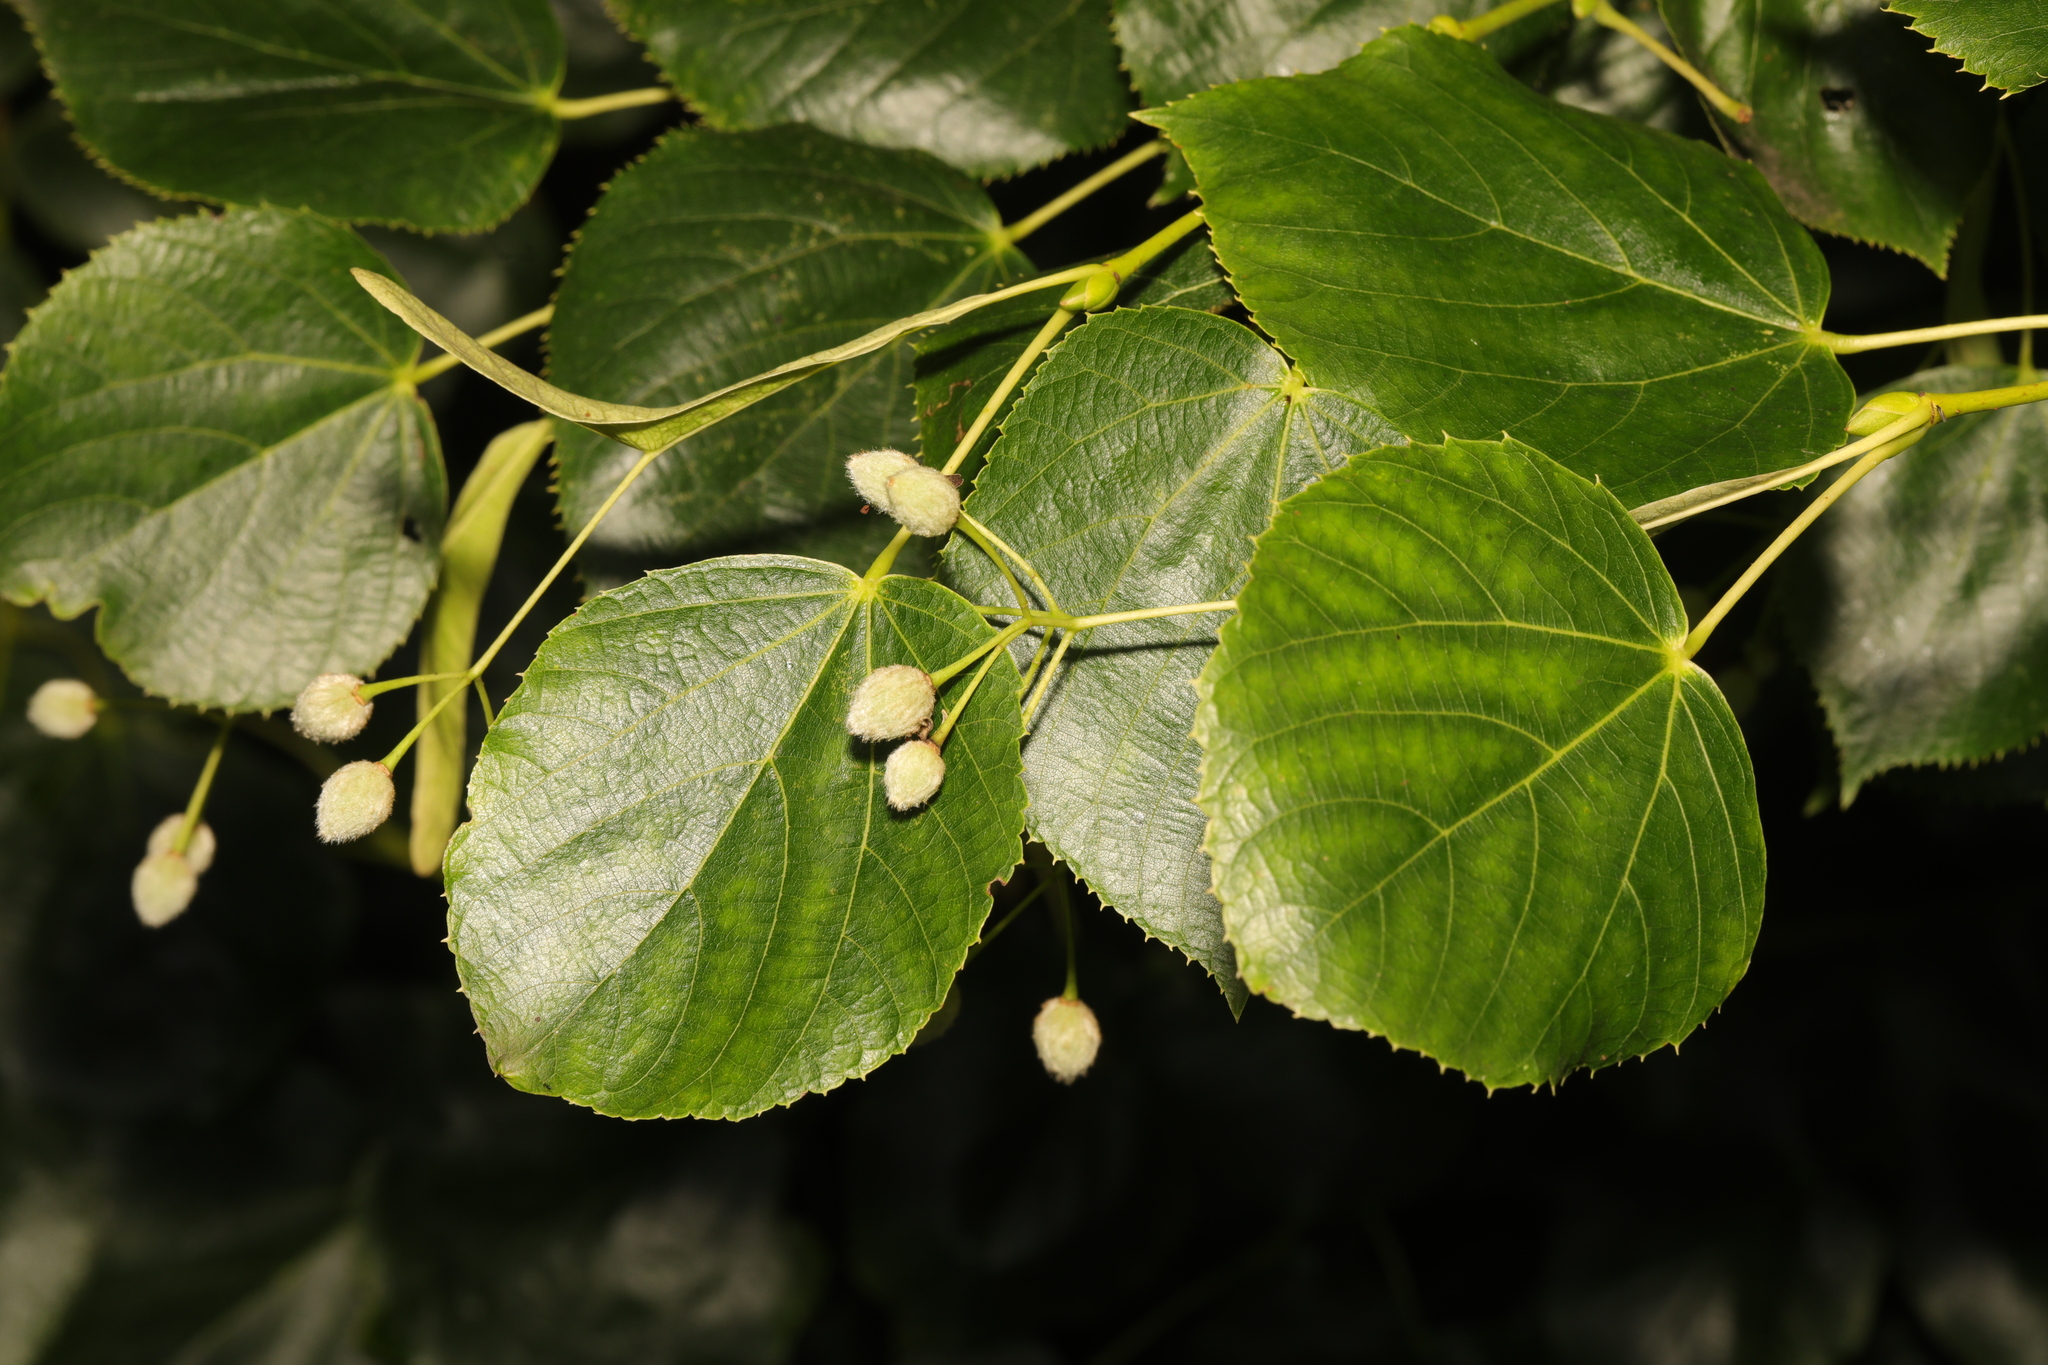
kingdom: Plantae
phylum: Tracheophyta
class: Magnoliopsida
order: Malvales
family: Malvaceae
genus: Tilia
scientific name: Tilia cordata
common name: Small-leaved lime
